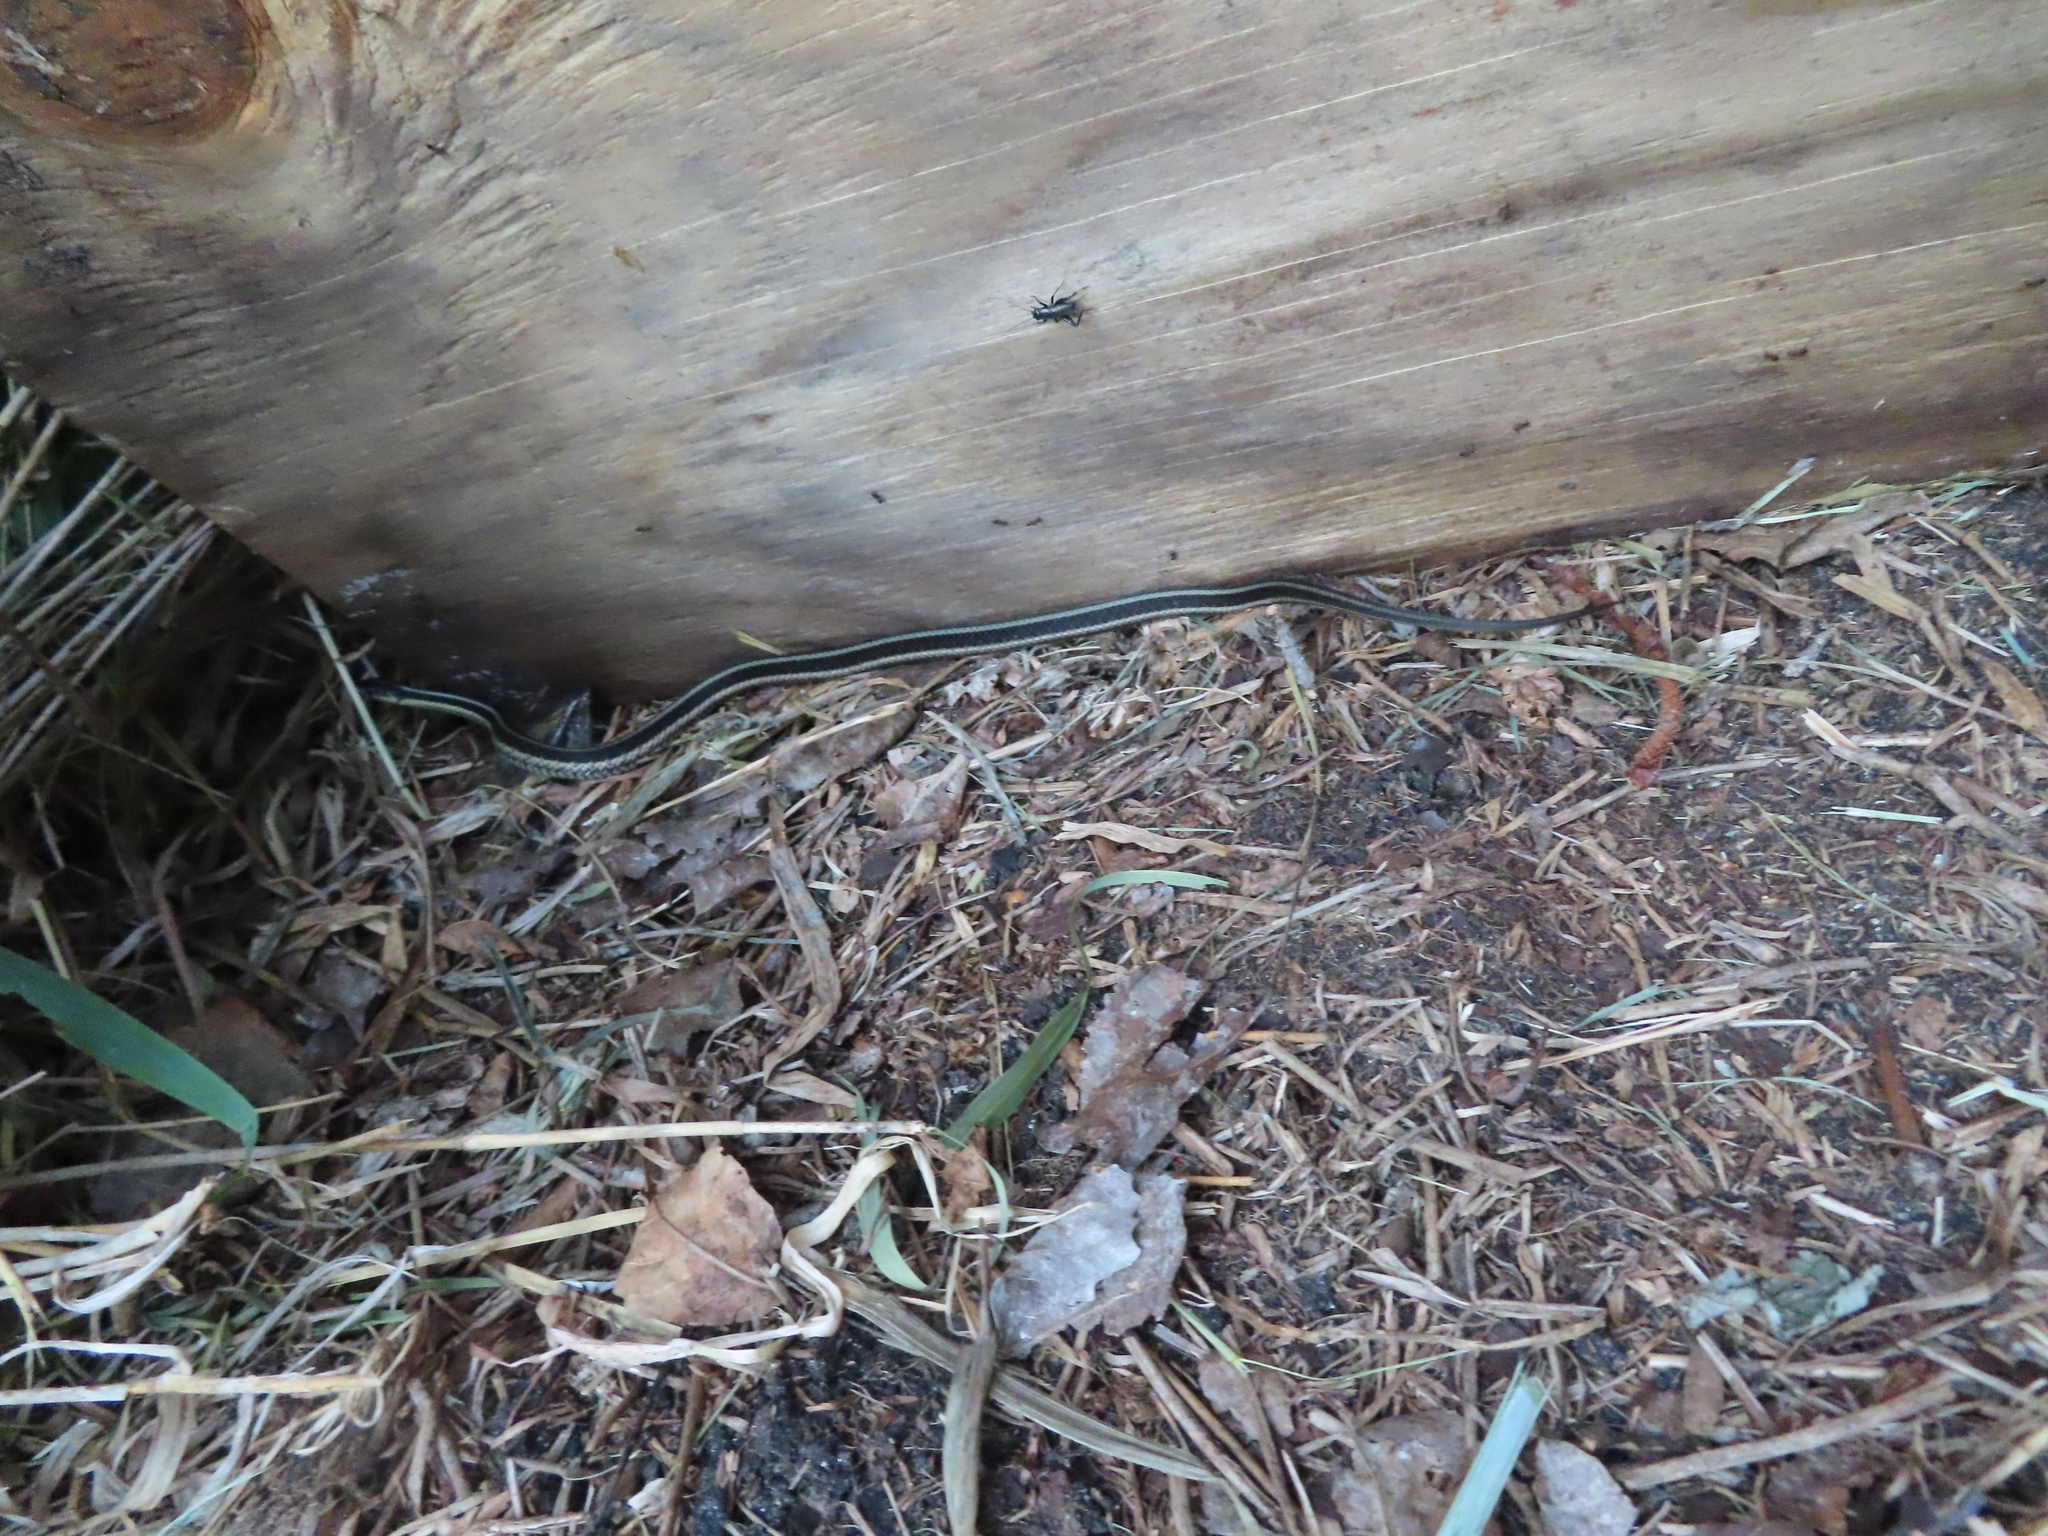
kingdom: Animalia
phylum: Chordata
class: Squamata
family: Colubridae
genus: Thamnophis
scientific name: Thamnophis sirtalis
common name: Common garter snake
